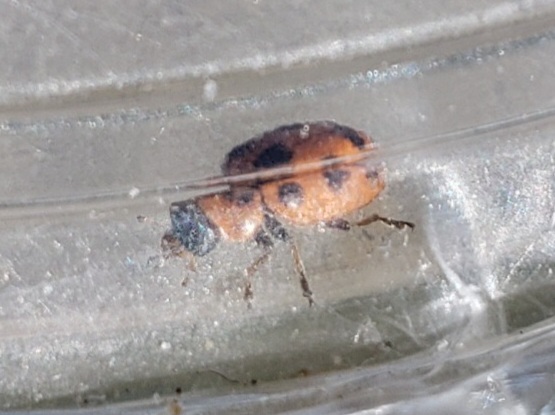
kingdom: Animalia
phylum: Arthropoda
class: Insecta
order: Coleoptera
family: Coccinellidae
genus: Naemia
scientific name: Naemia seriata
